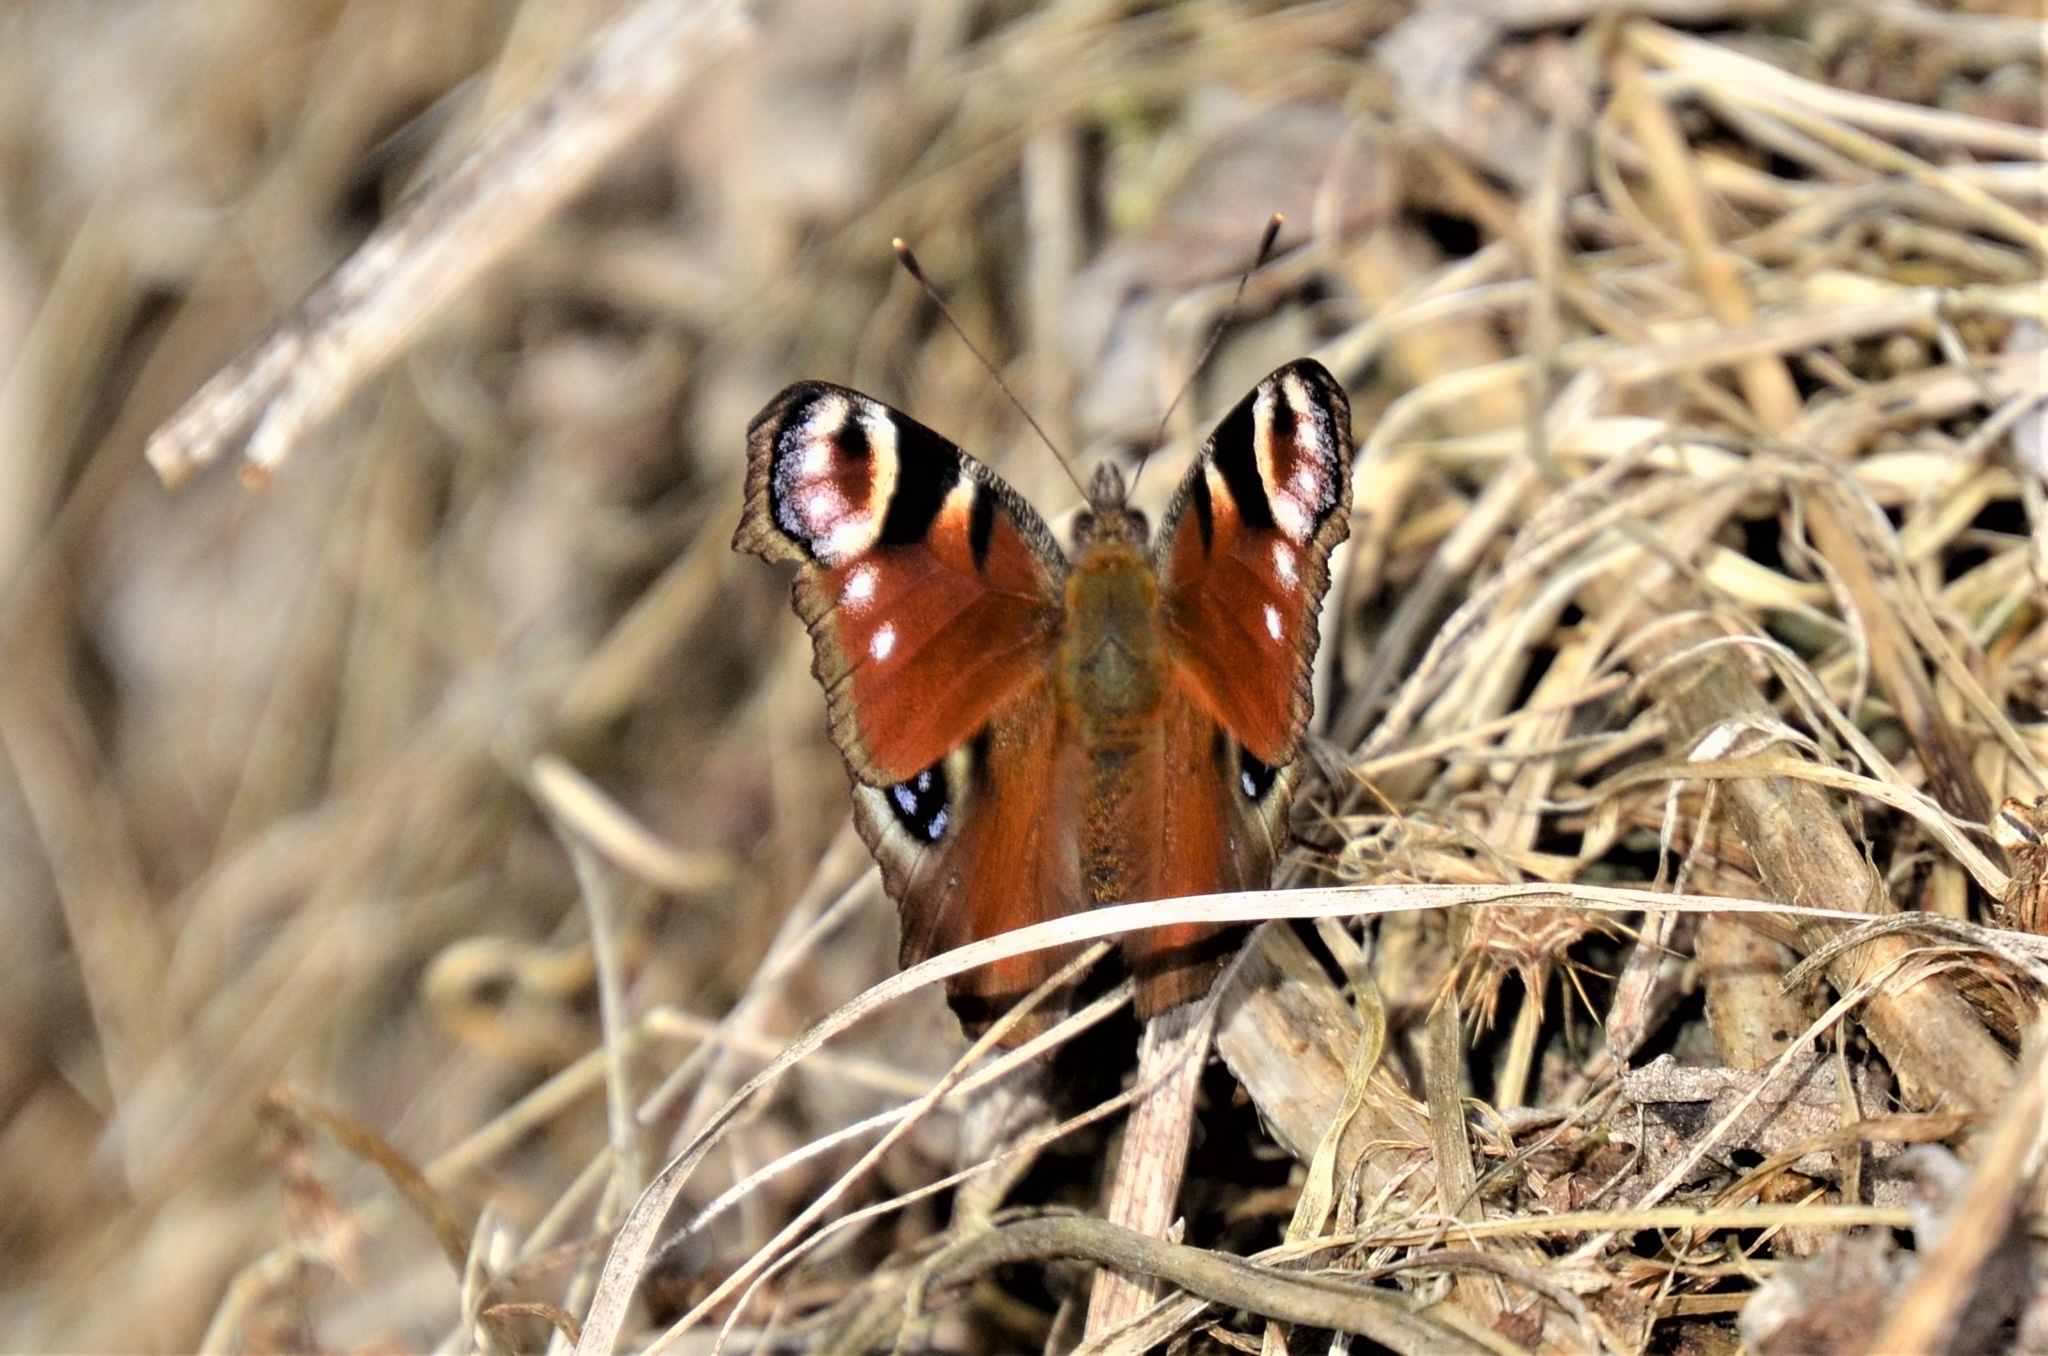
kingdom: Animalia
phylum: Arthropoda
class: Insecta
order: Lepidoptera
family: Nymphalidae
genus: Aglais
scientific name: Aglais io
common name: Peacock
